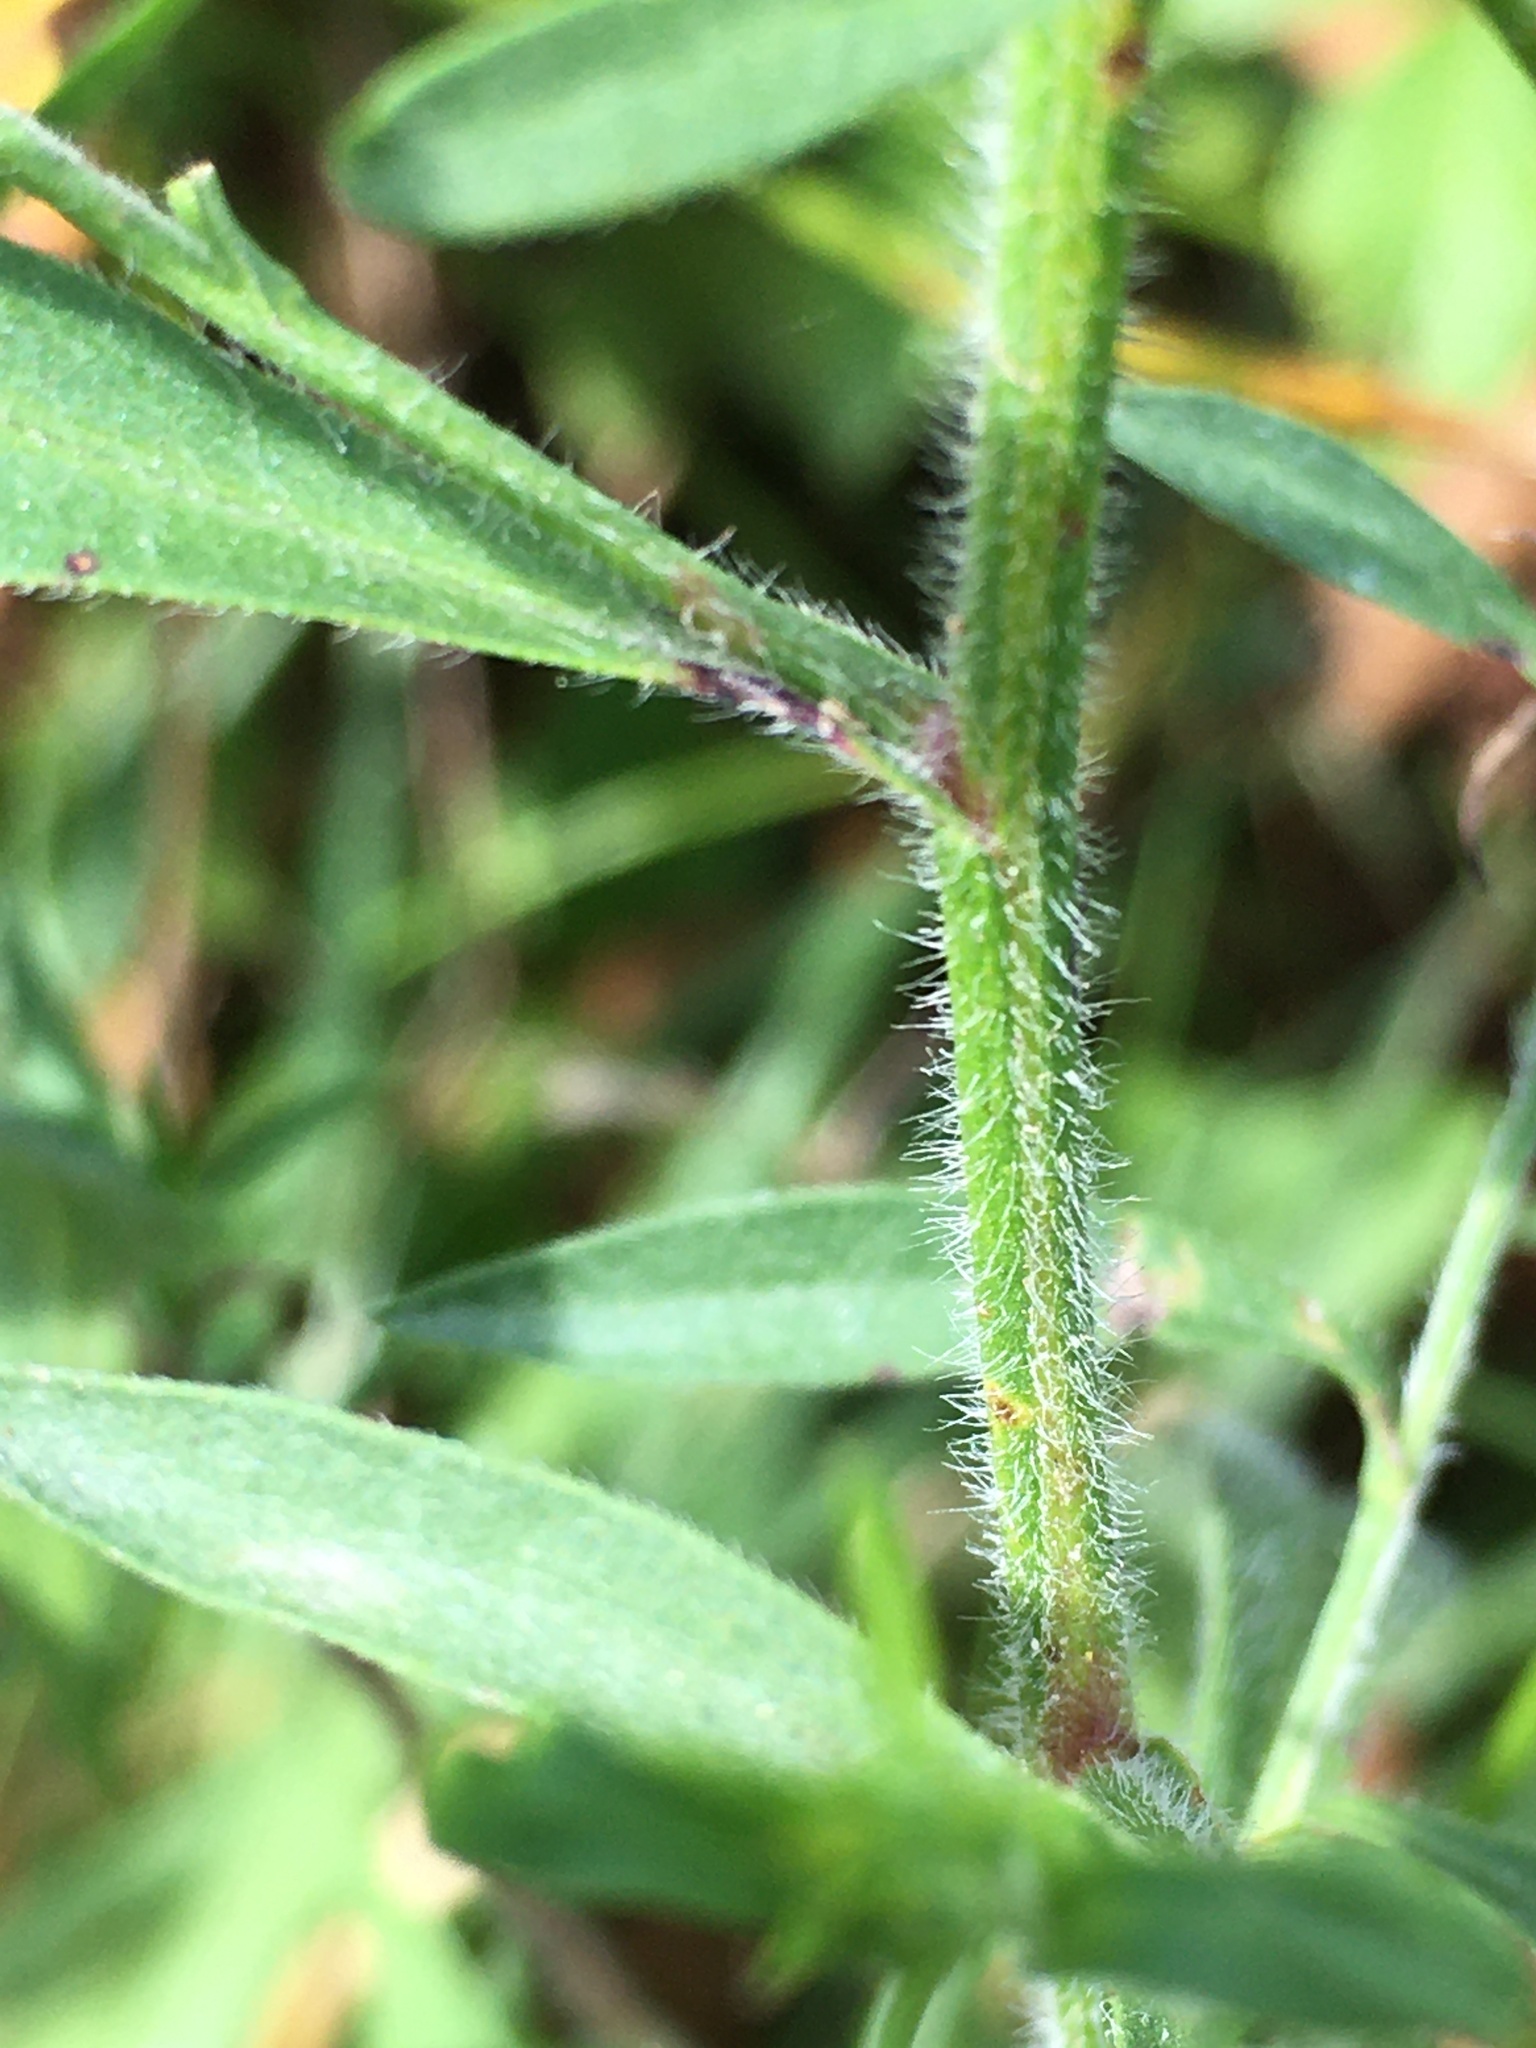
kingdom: Plantae
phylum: Tracheophyta
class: Magnoliopsida
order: Asterales
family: Asteraceae
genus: Symphyotrichum
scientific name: Symphyotrichum pilosum
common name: Awl aster
